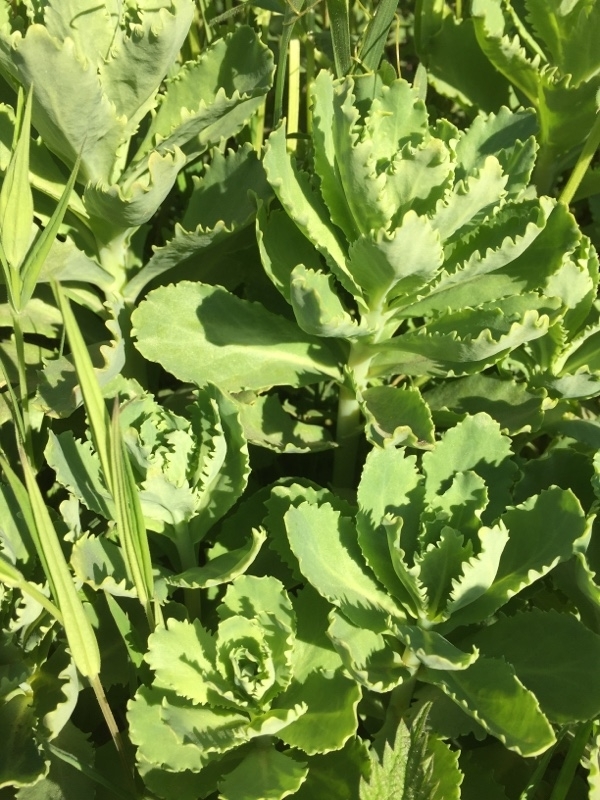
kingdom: Plantae
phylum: Tracheophyta
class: Magnoliopsida
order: Saxifragales
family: Crassulaceae
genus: Hylotelephium
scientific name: Hylotelephium telephium
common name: Live-forever
